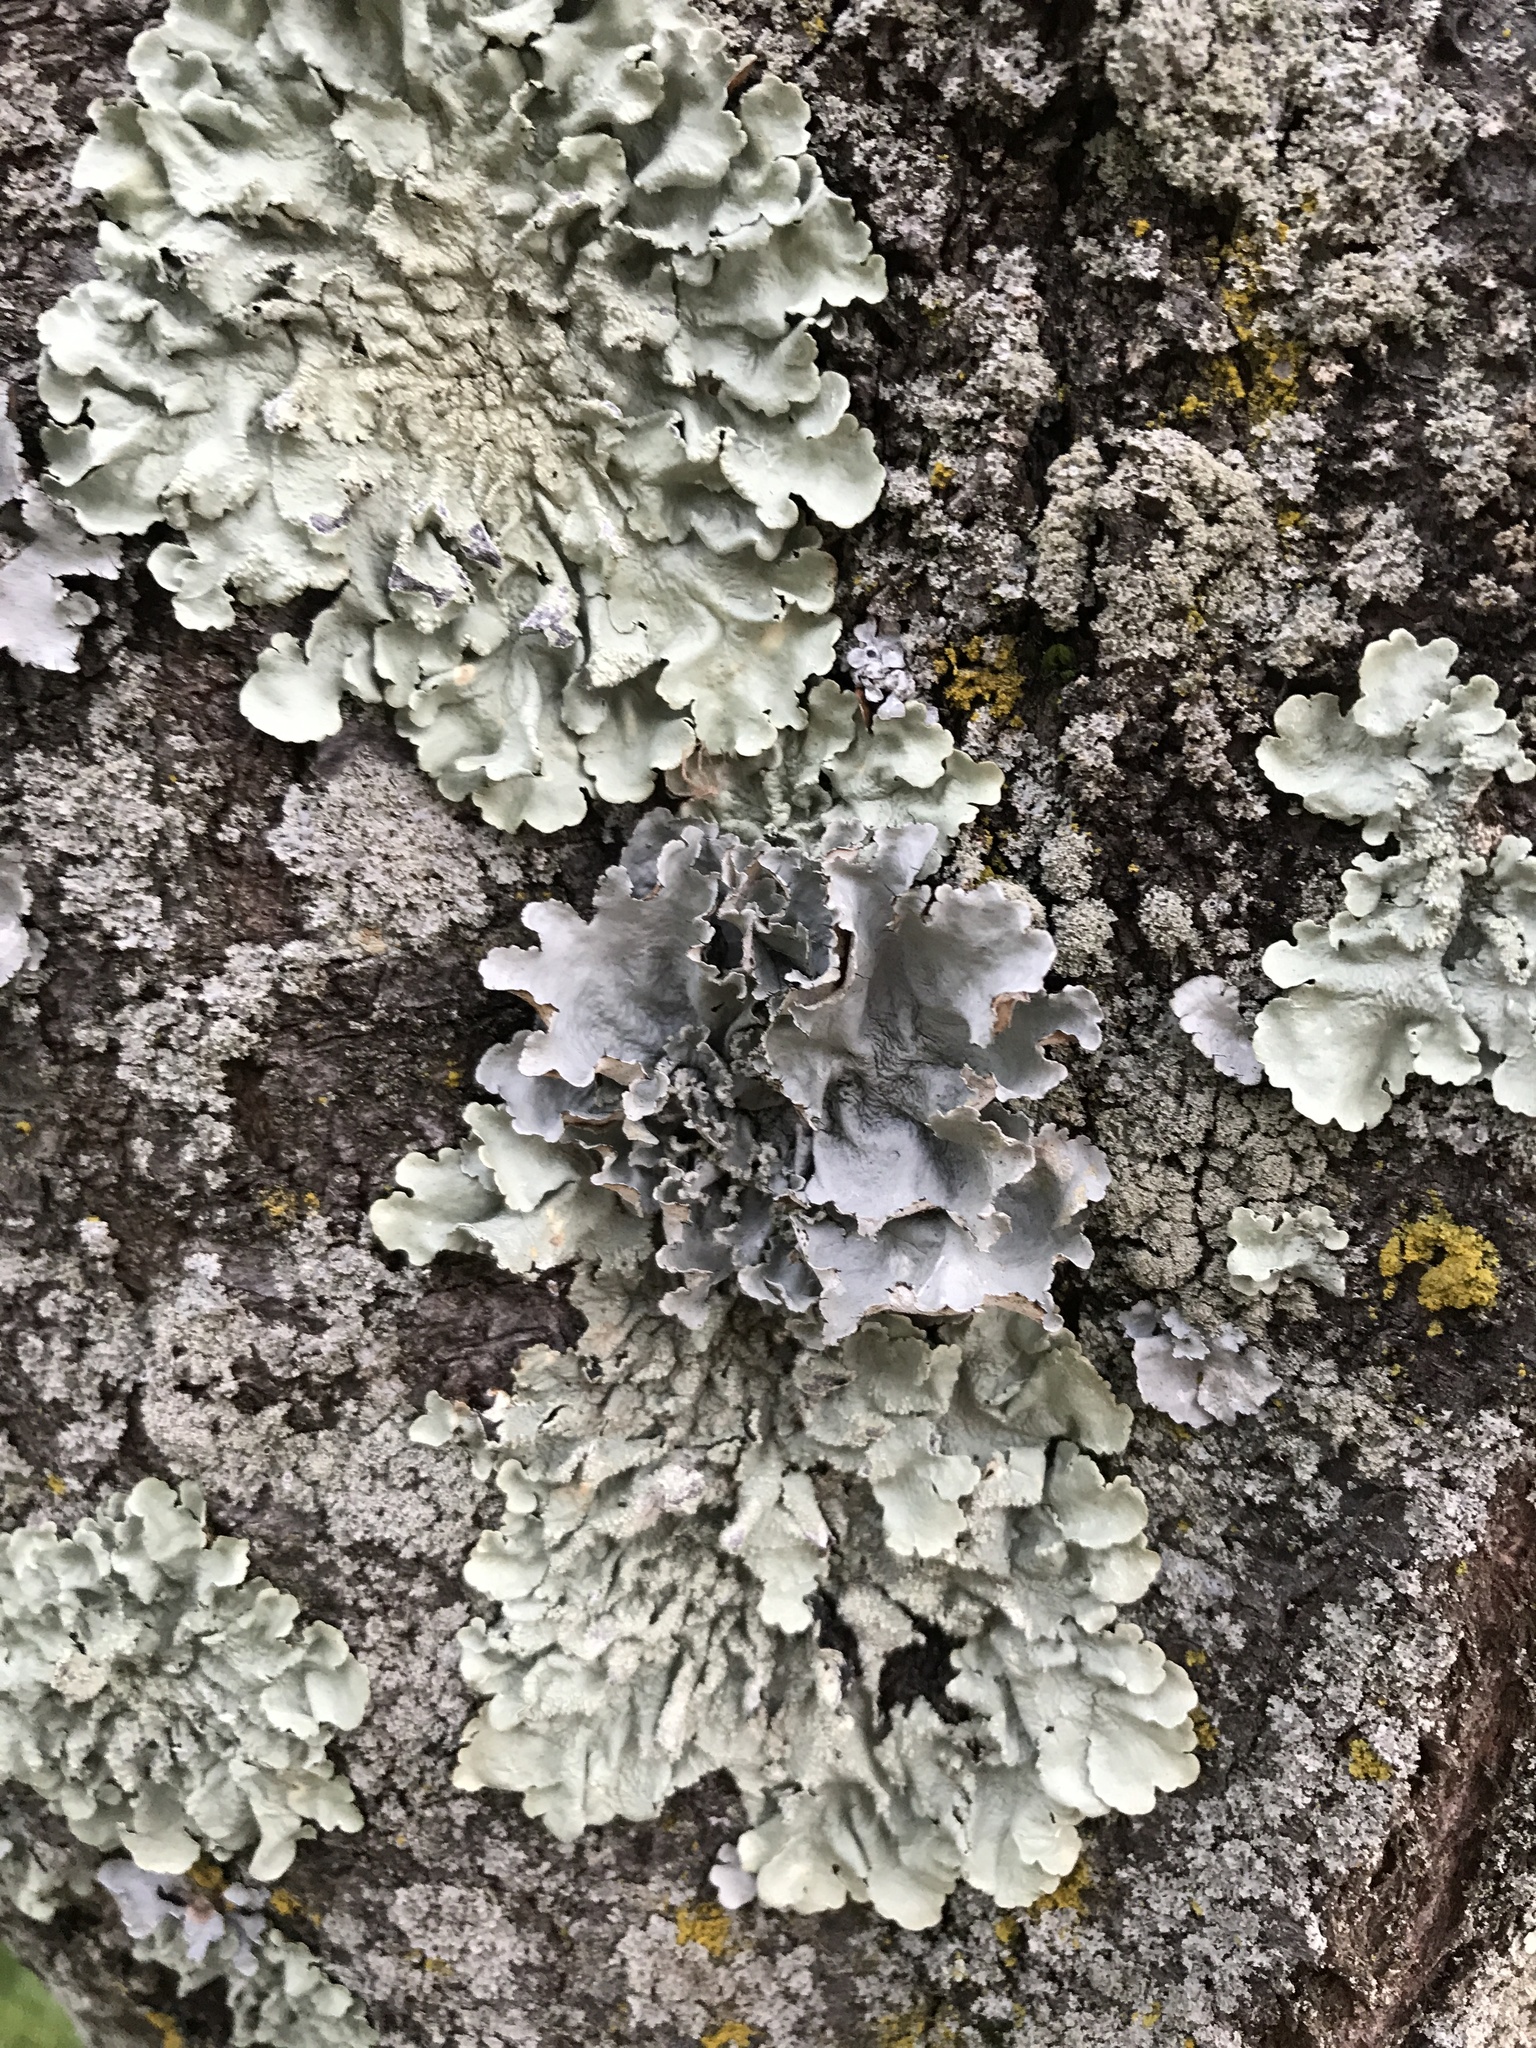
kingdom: Fungi
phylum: Ascomycota
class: Lecanoromycetes
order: Lecanorales
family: Parmeliaceae
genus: Parmotrema
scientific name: Parmotrema hypotropum
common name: Powdered ruffle lichen
